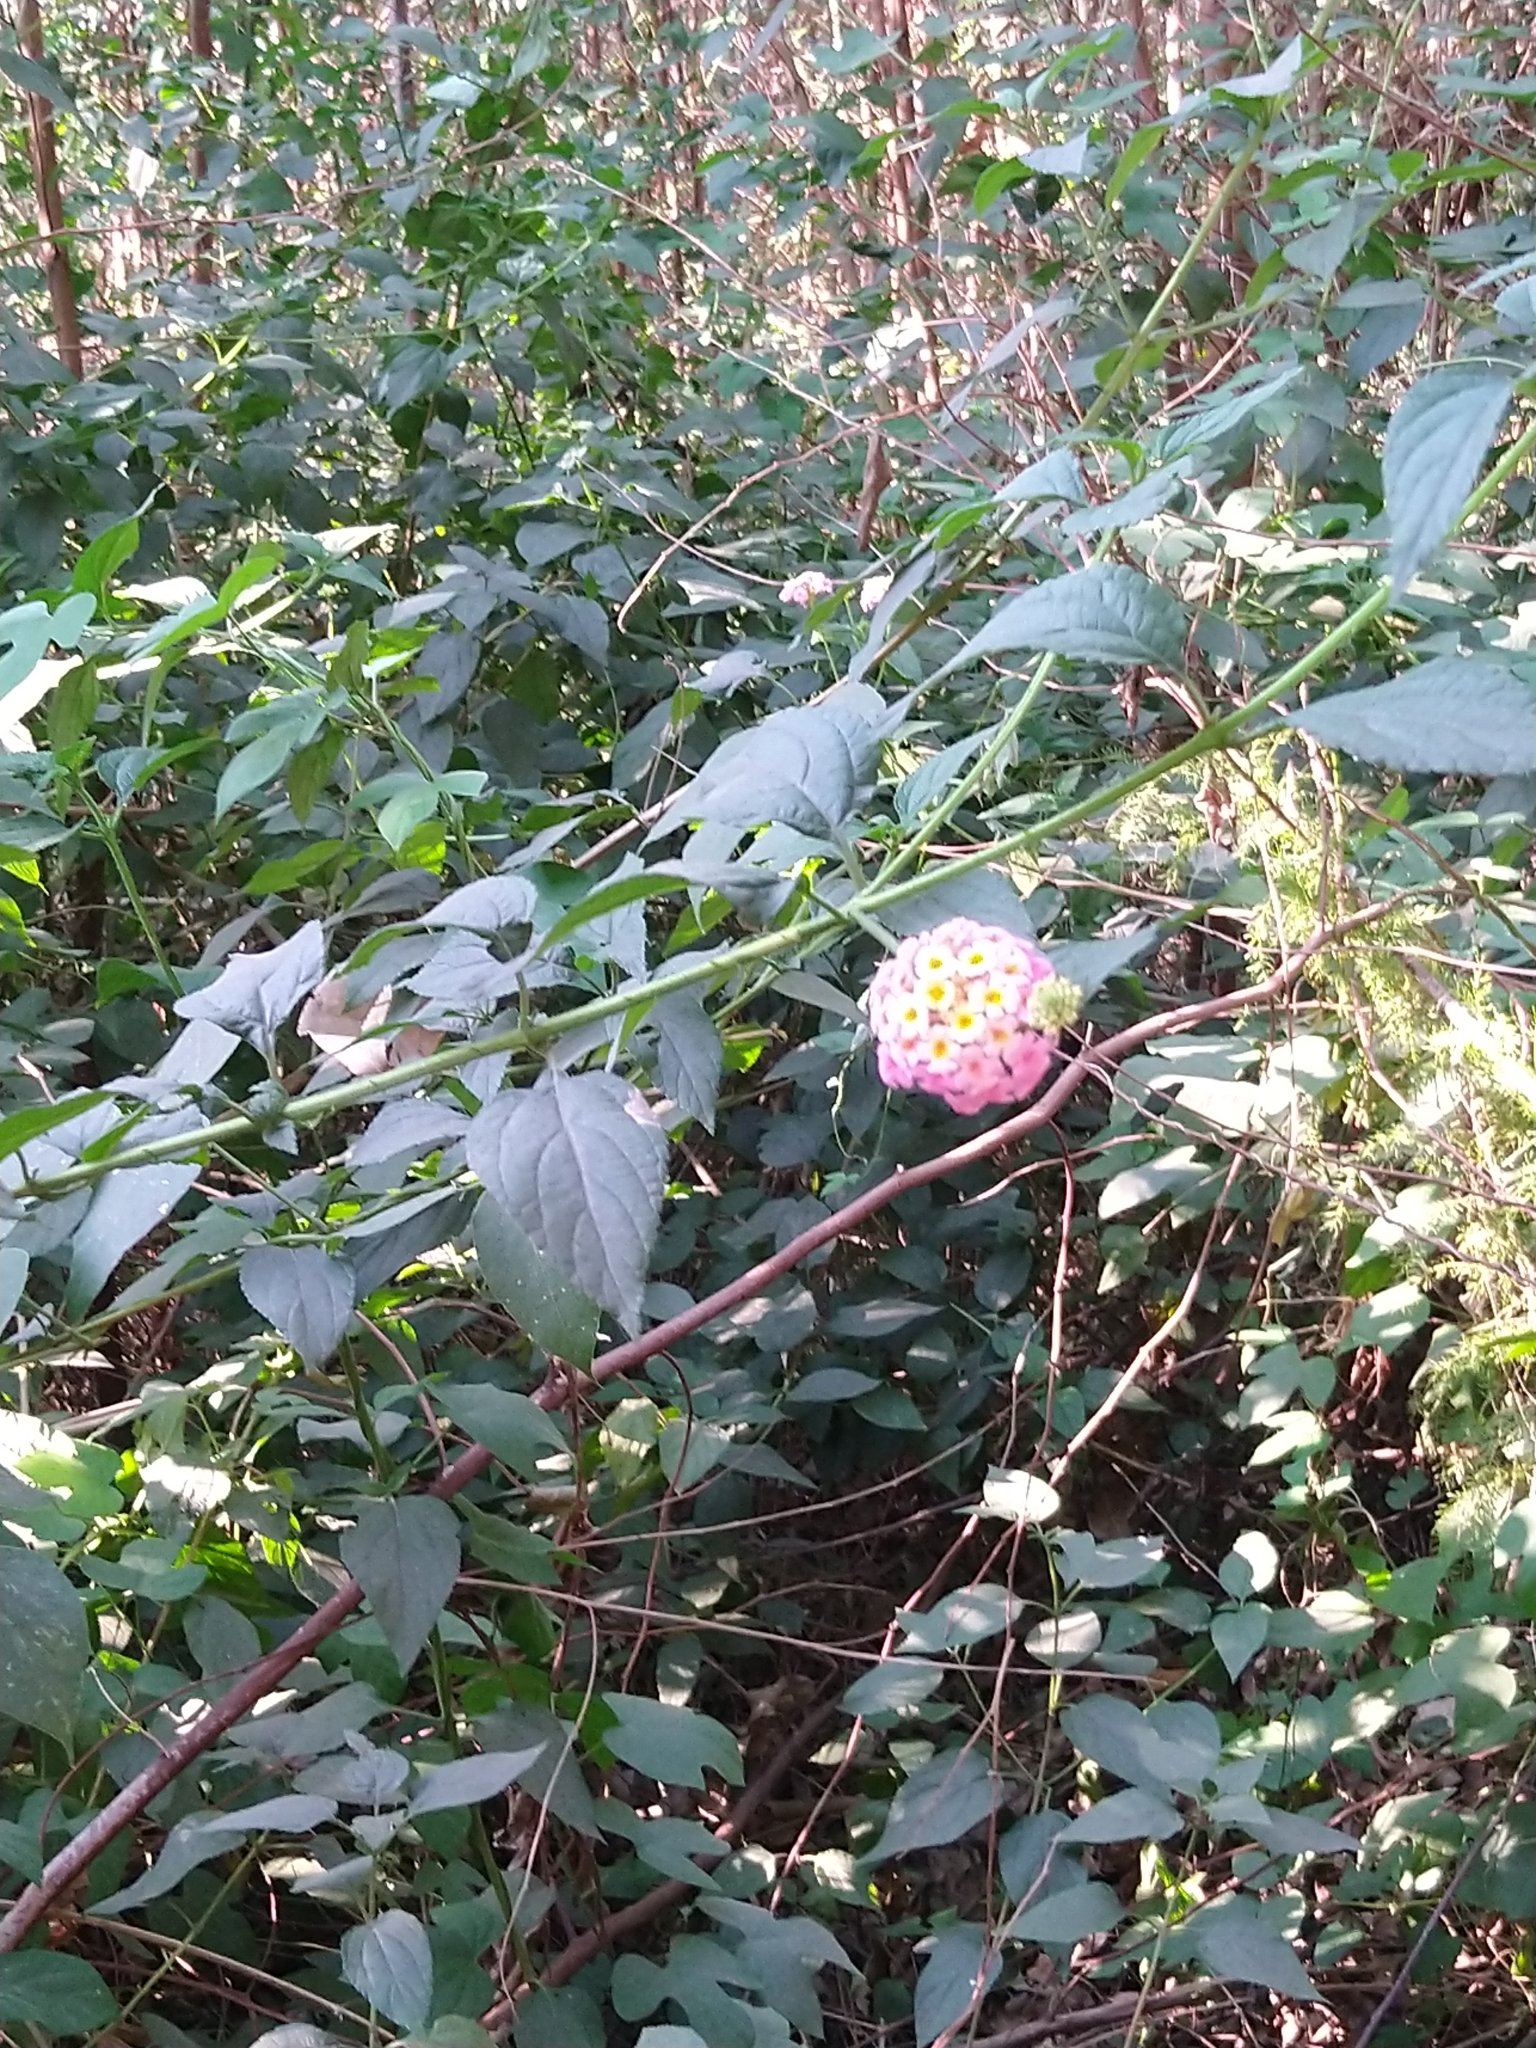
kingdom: Plantae
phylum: Tracheophyta
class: Magnoliopsida
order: Lamiales
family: Verbenaceae
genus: Lantana
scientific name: Lantana camara
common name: Lantana
